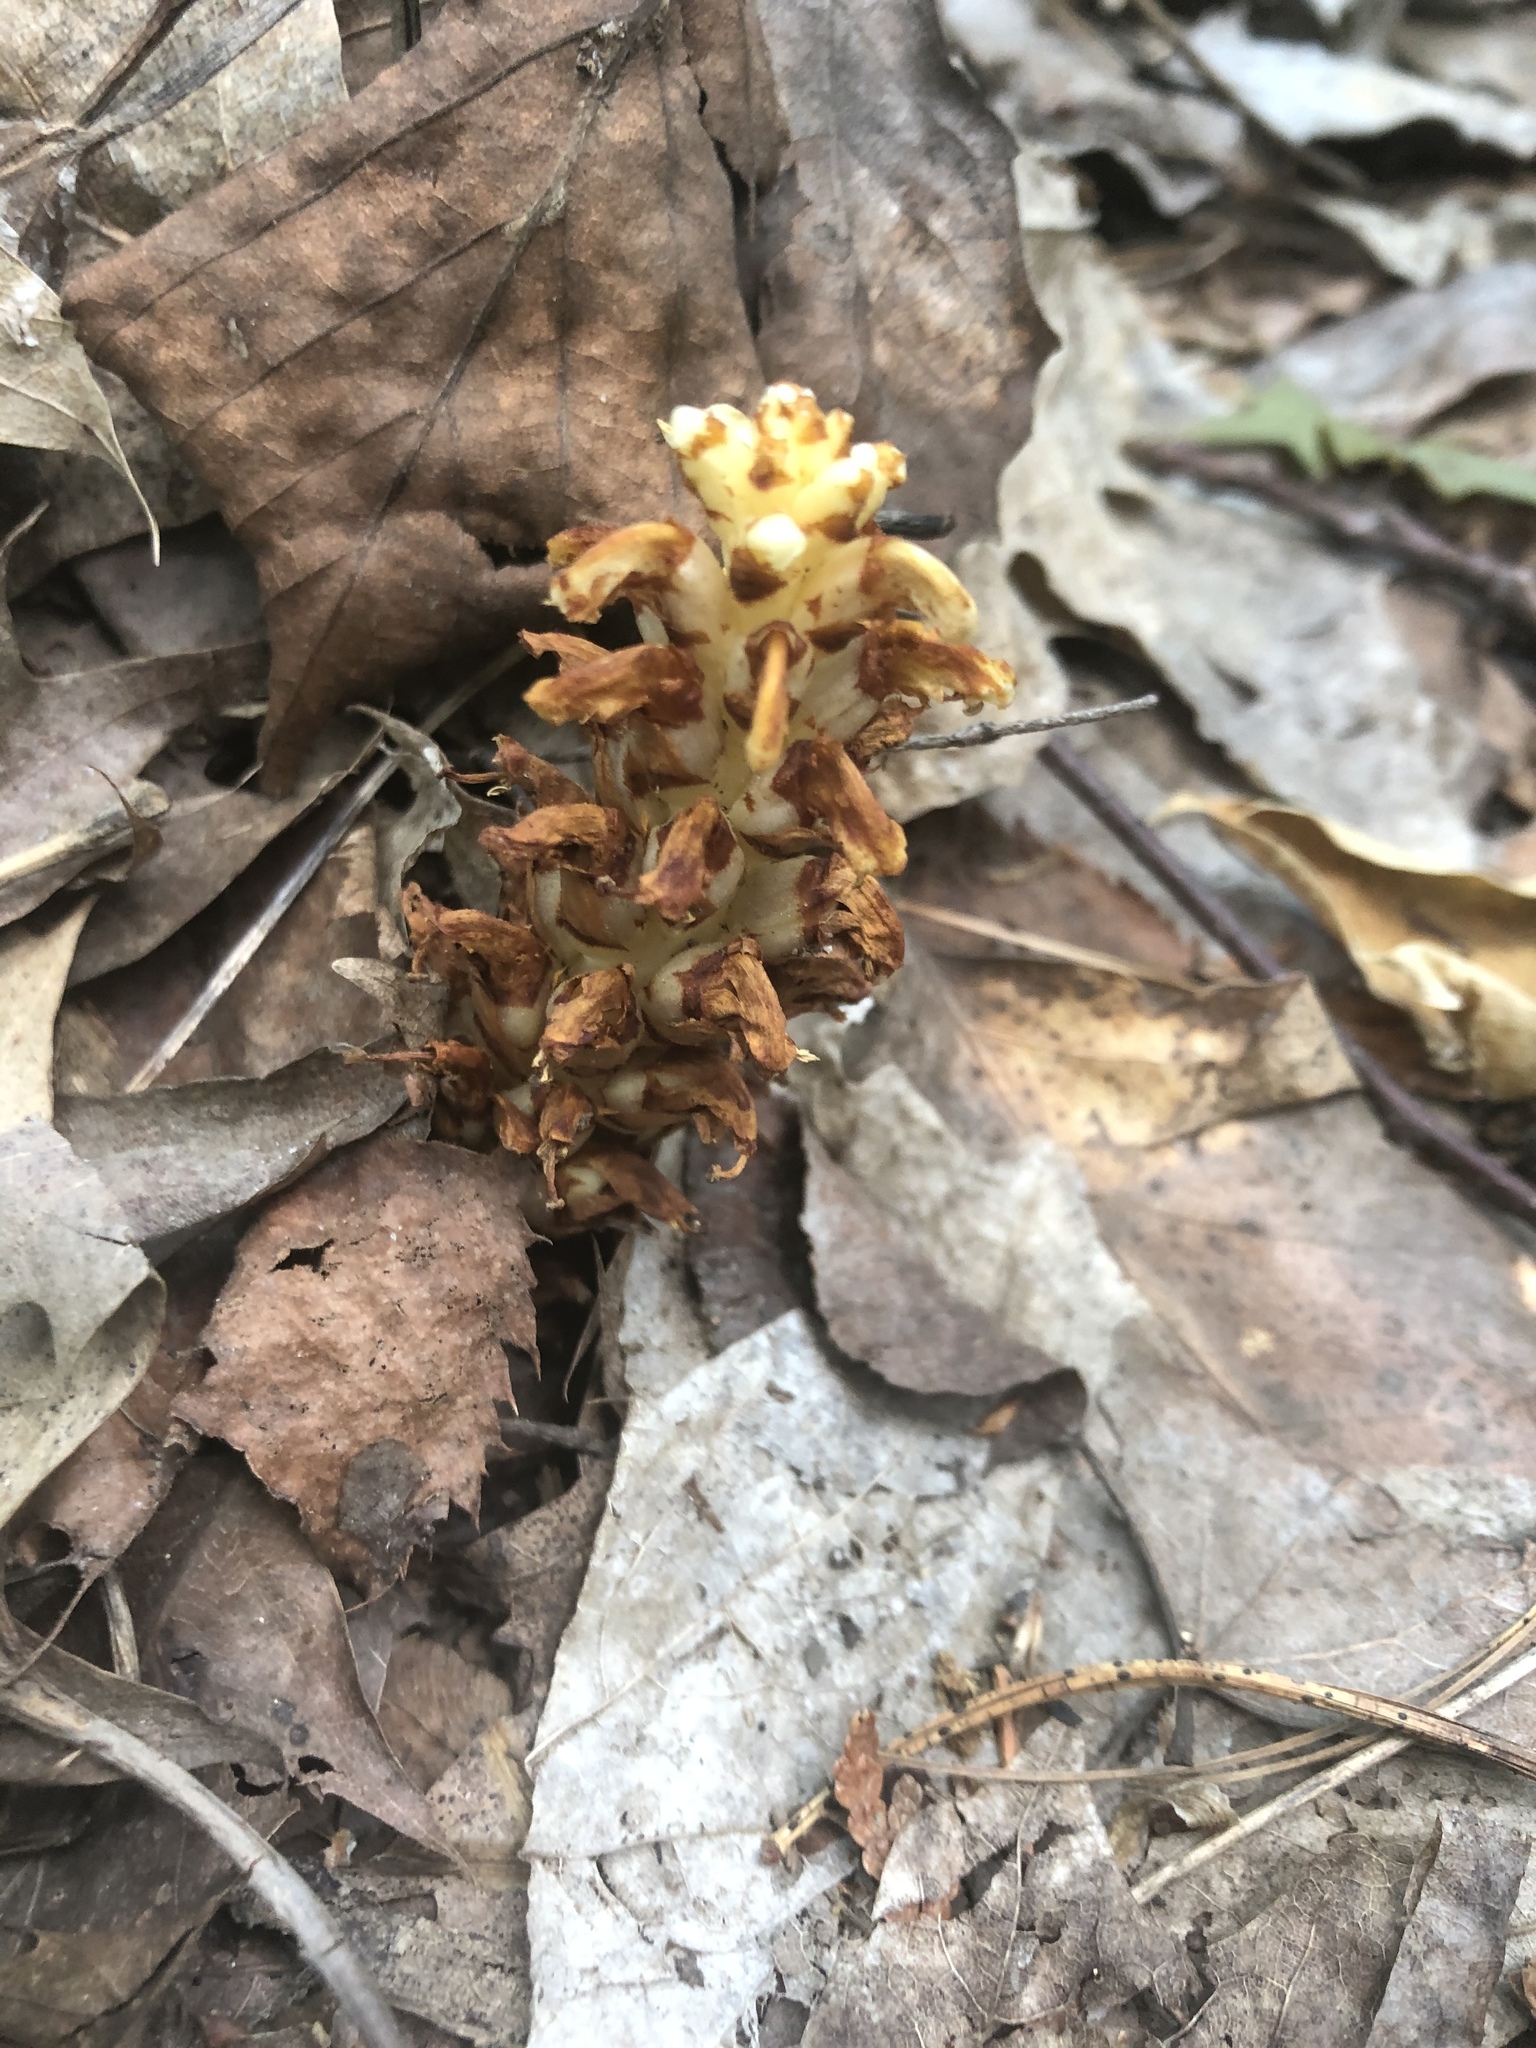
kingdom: Plantae
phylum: Tracheophyta
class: Magnoliopsida
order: Lamiales
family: Orobanchaceae
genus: Conopholis
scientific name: Conopholis americana
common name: American cancer-root
